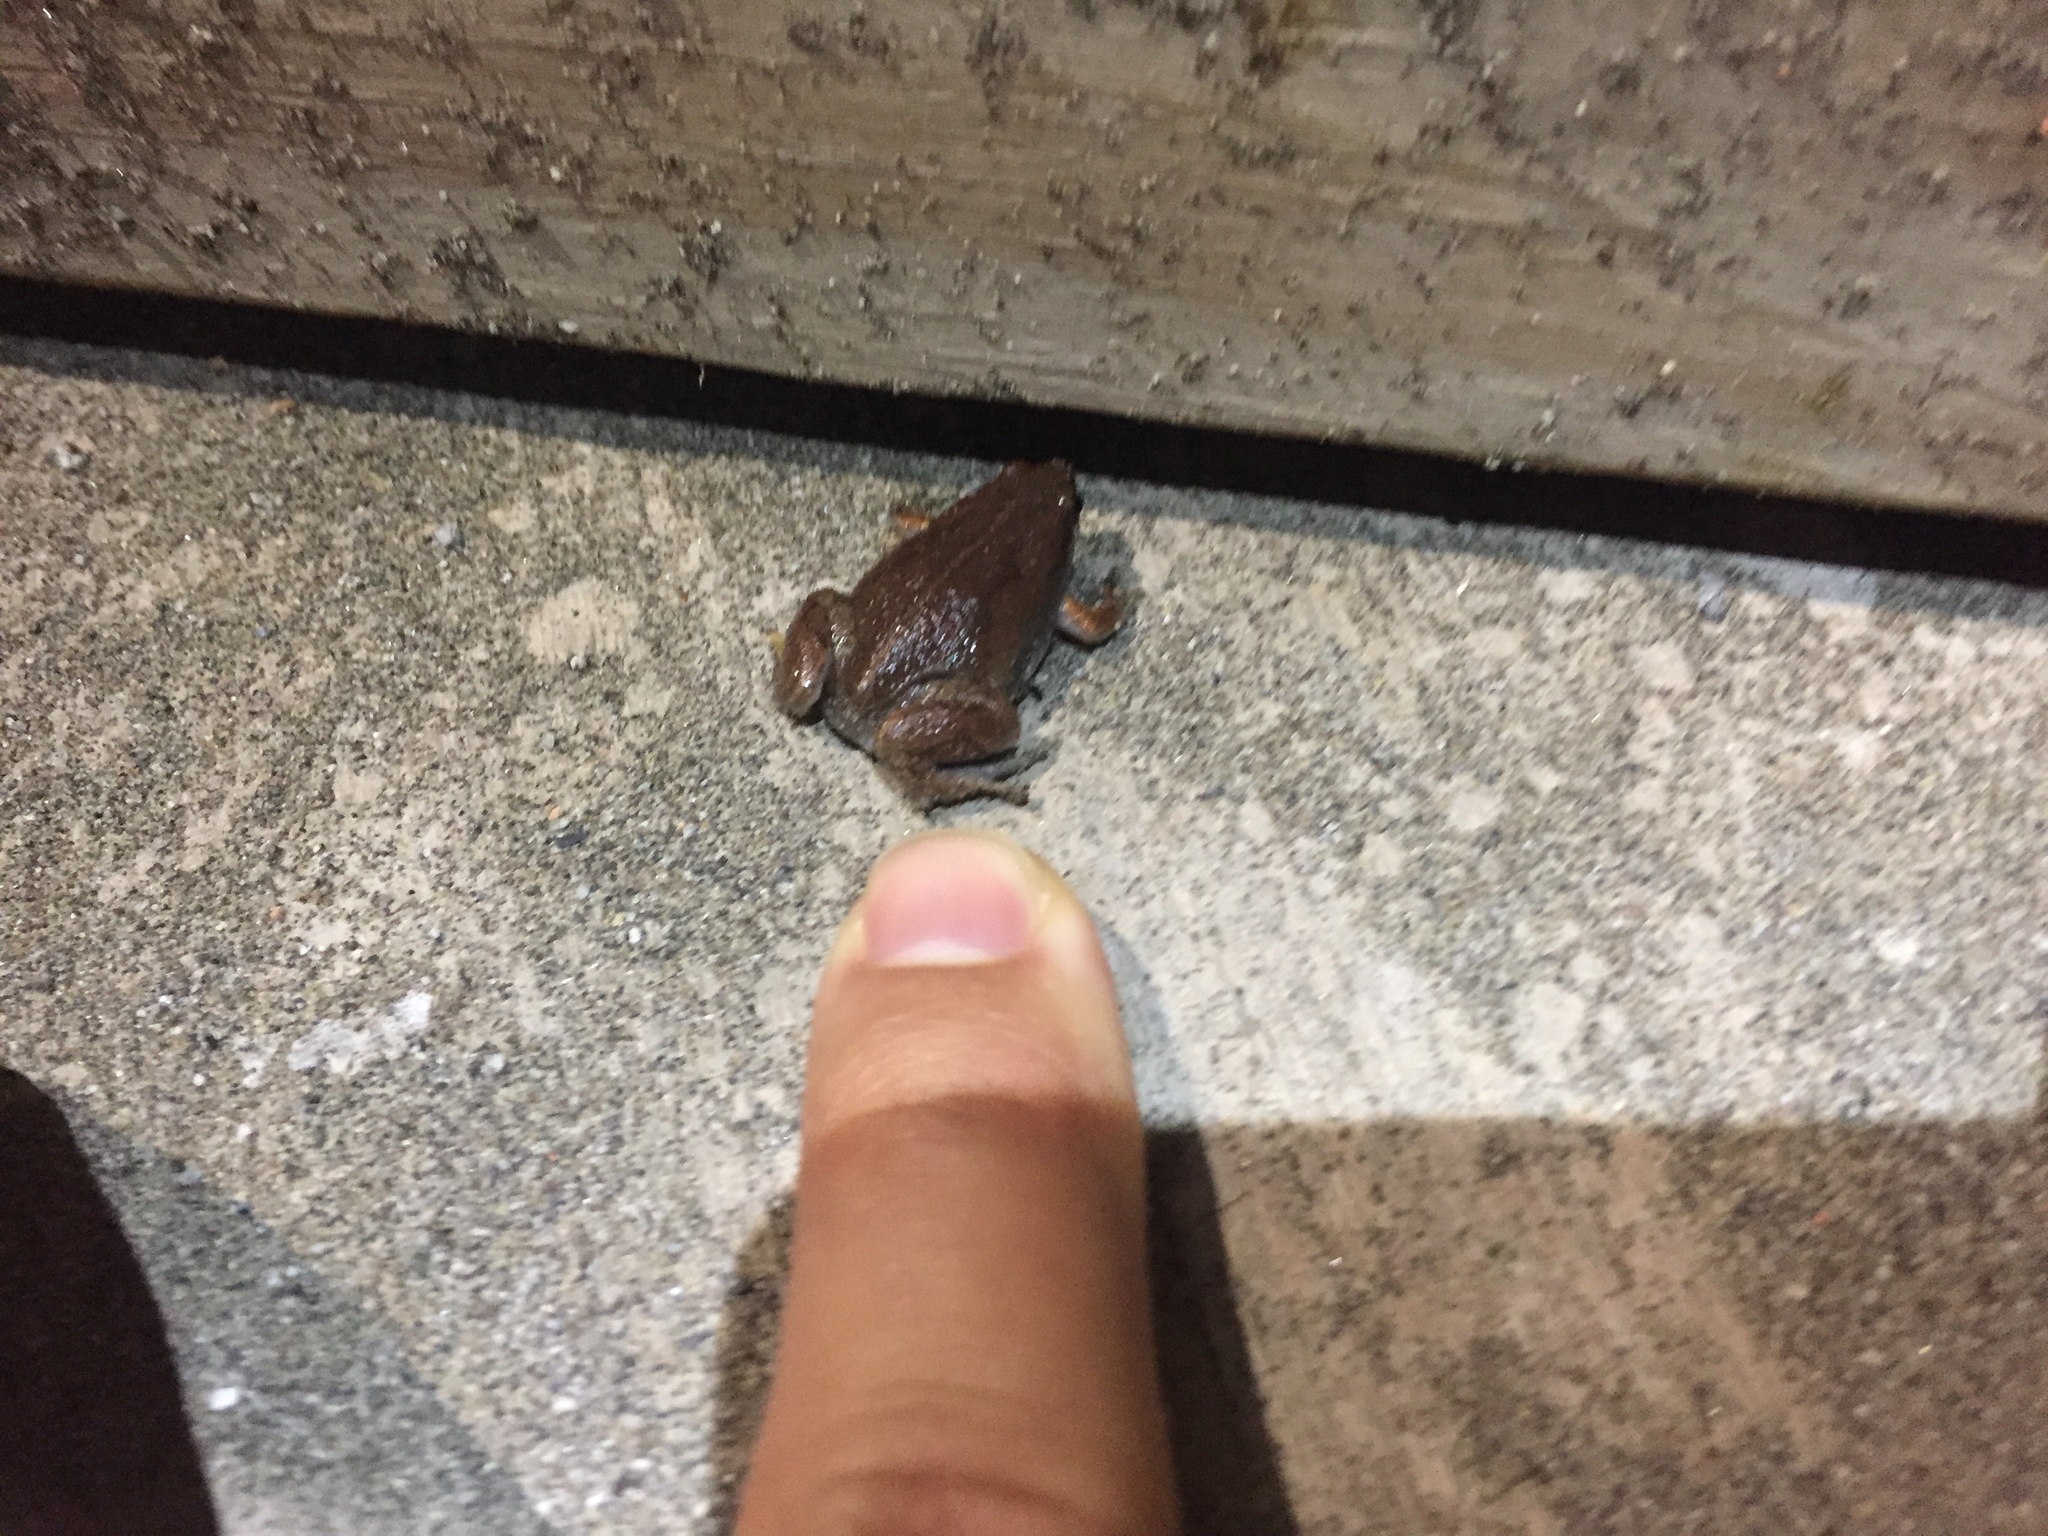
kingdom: Animalia
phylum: Chordata
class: Amphibia
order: Anura
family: Microhylidae
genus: Gastrophryne
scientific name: Gastrophryne elegans
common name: Elegant narrowmouth toad
